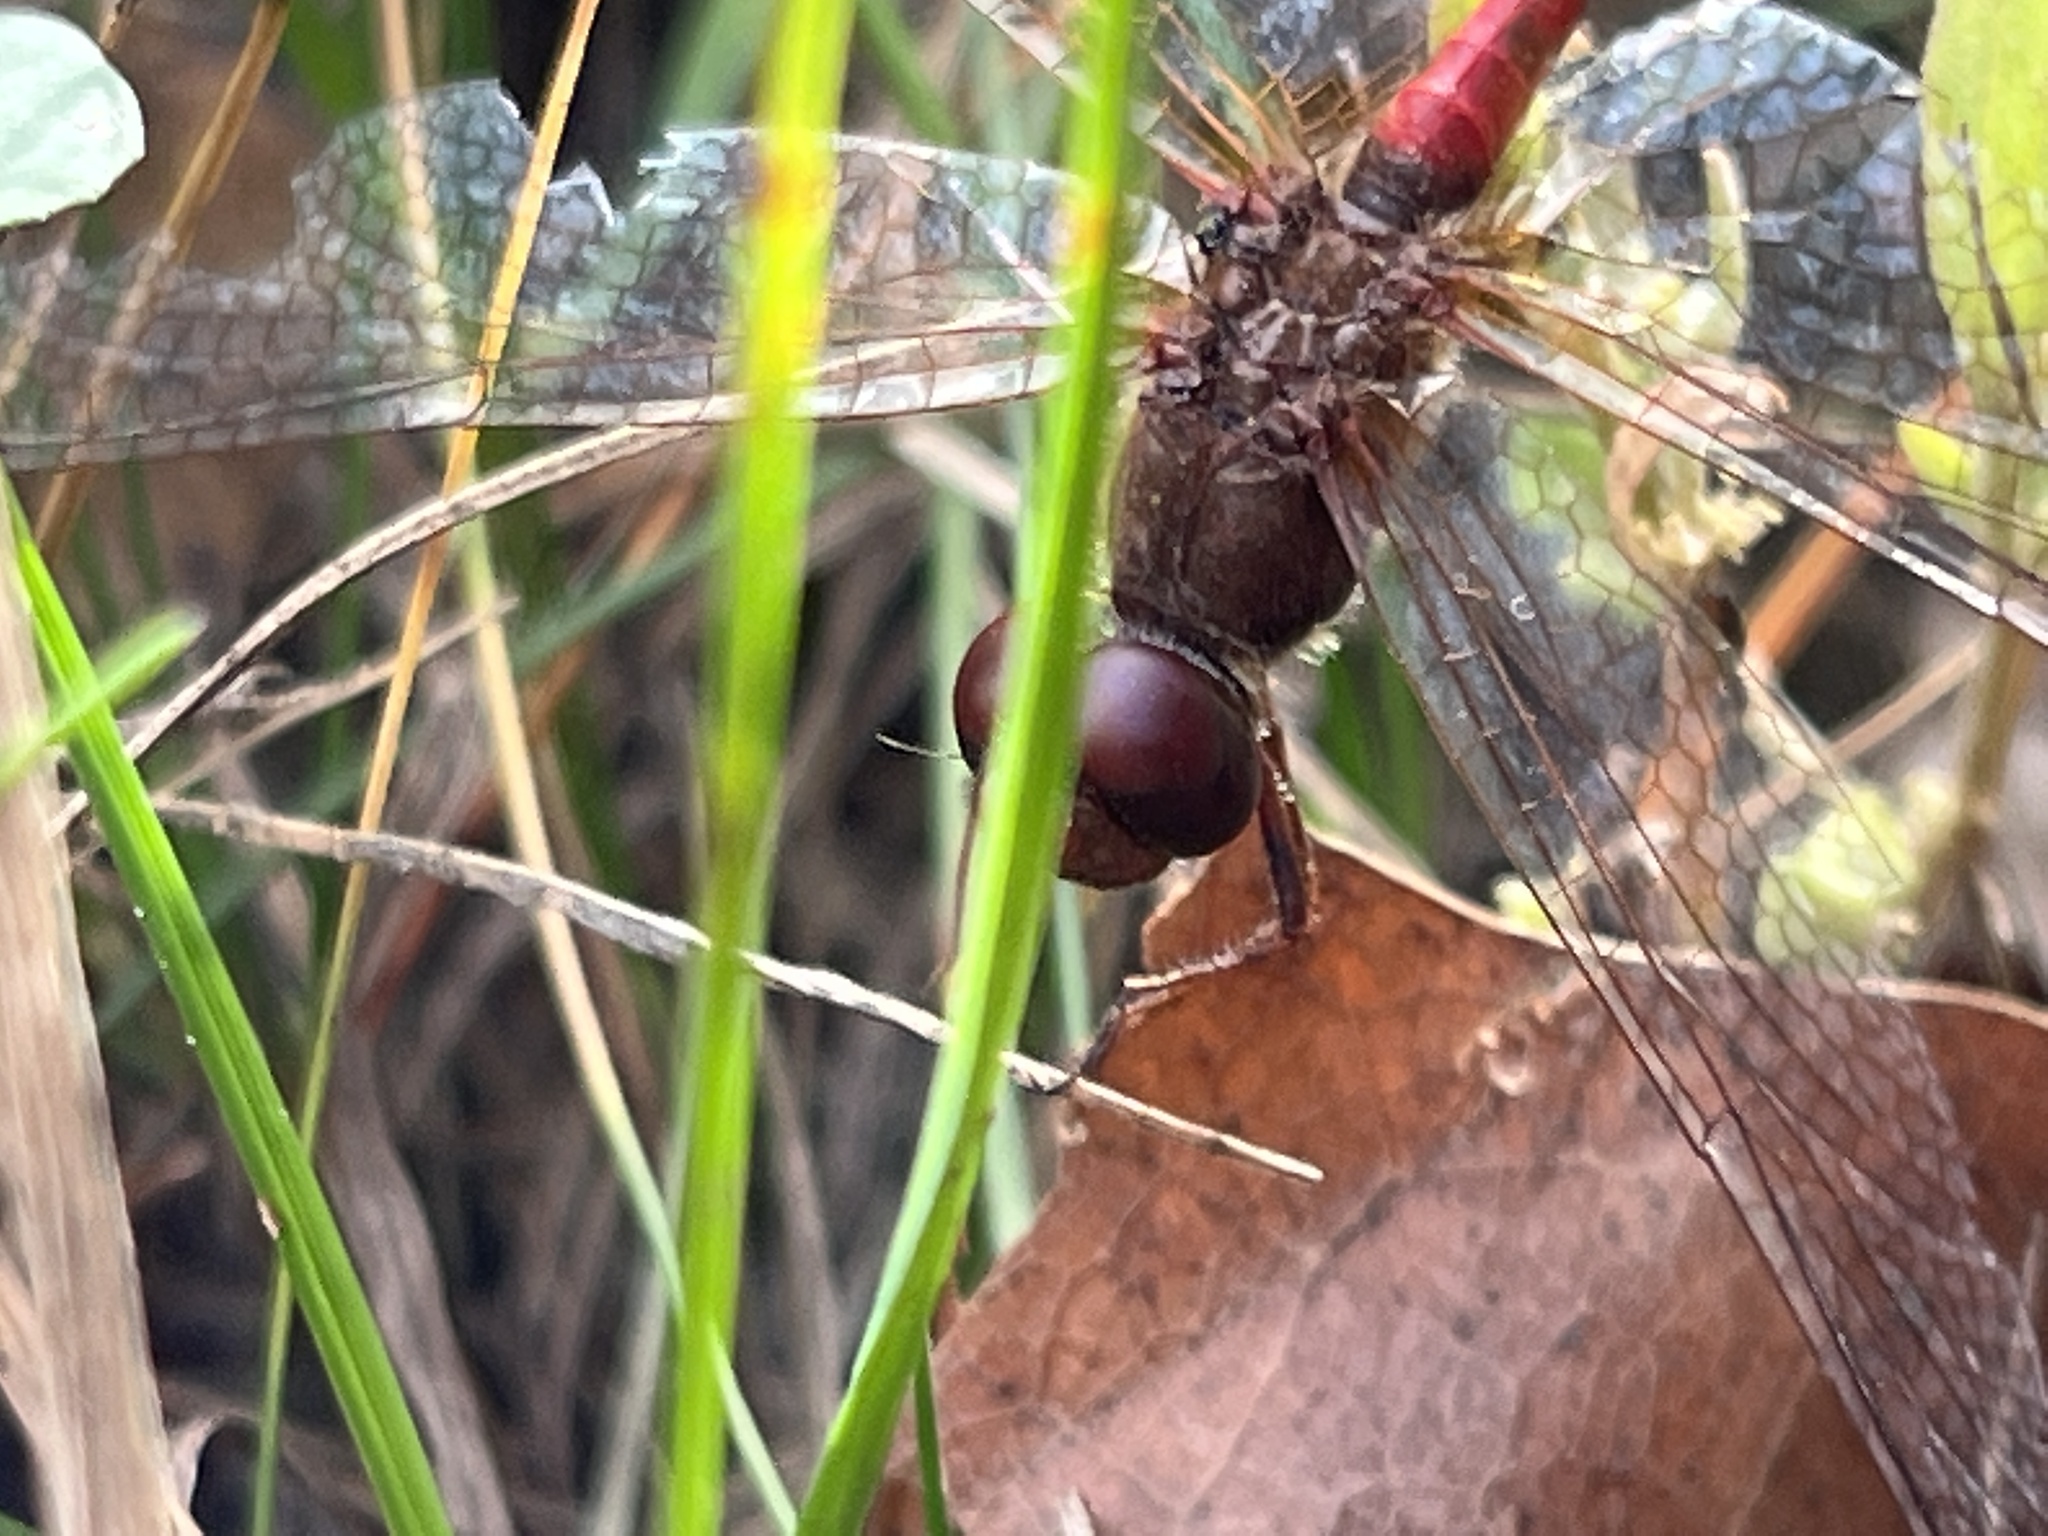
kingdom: Animalia
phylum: Arthropoda
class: Insecta
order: Odonata
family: Libellulidae
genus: Sympetrum
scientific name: Sympetrum vicinum
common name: Autumn meadowhawk
